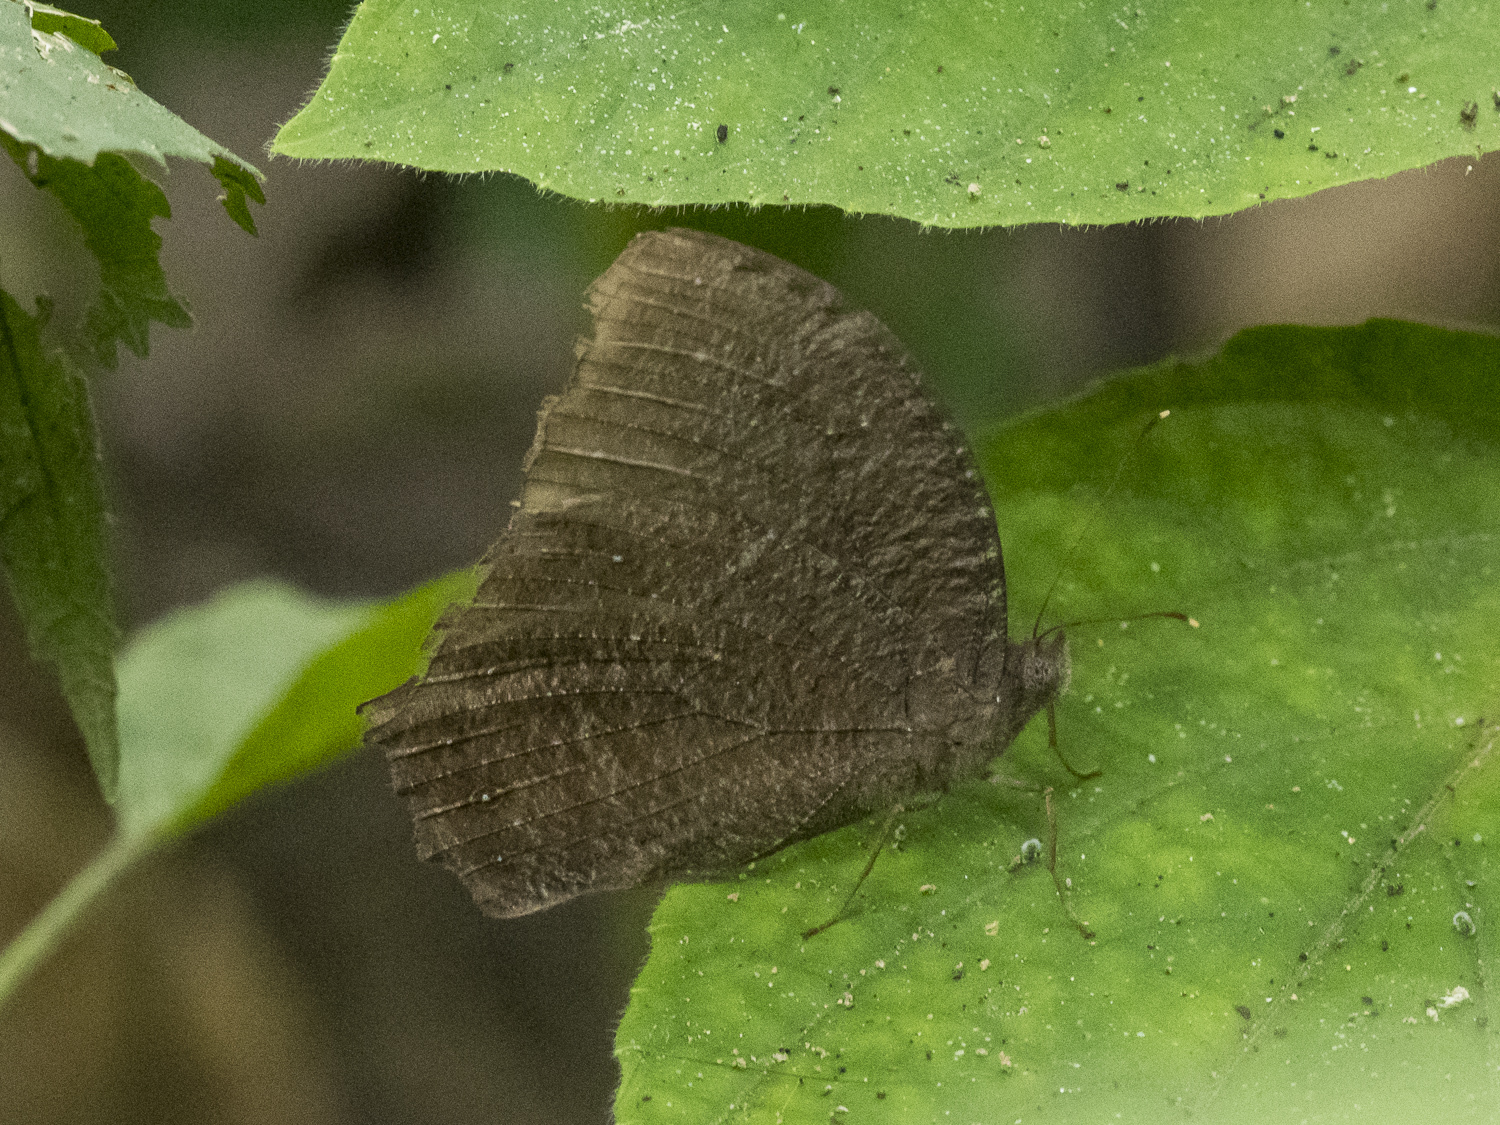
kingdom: Animalia
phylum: Arthropoda
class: Insecta
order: Lepidoptera
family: Nymphalidae
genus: Melanitis
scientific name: Melanitis phedima
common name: Dark evening brown
